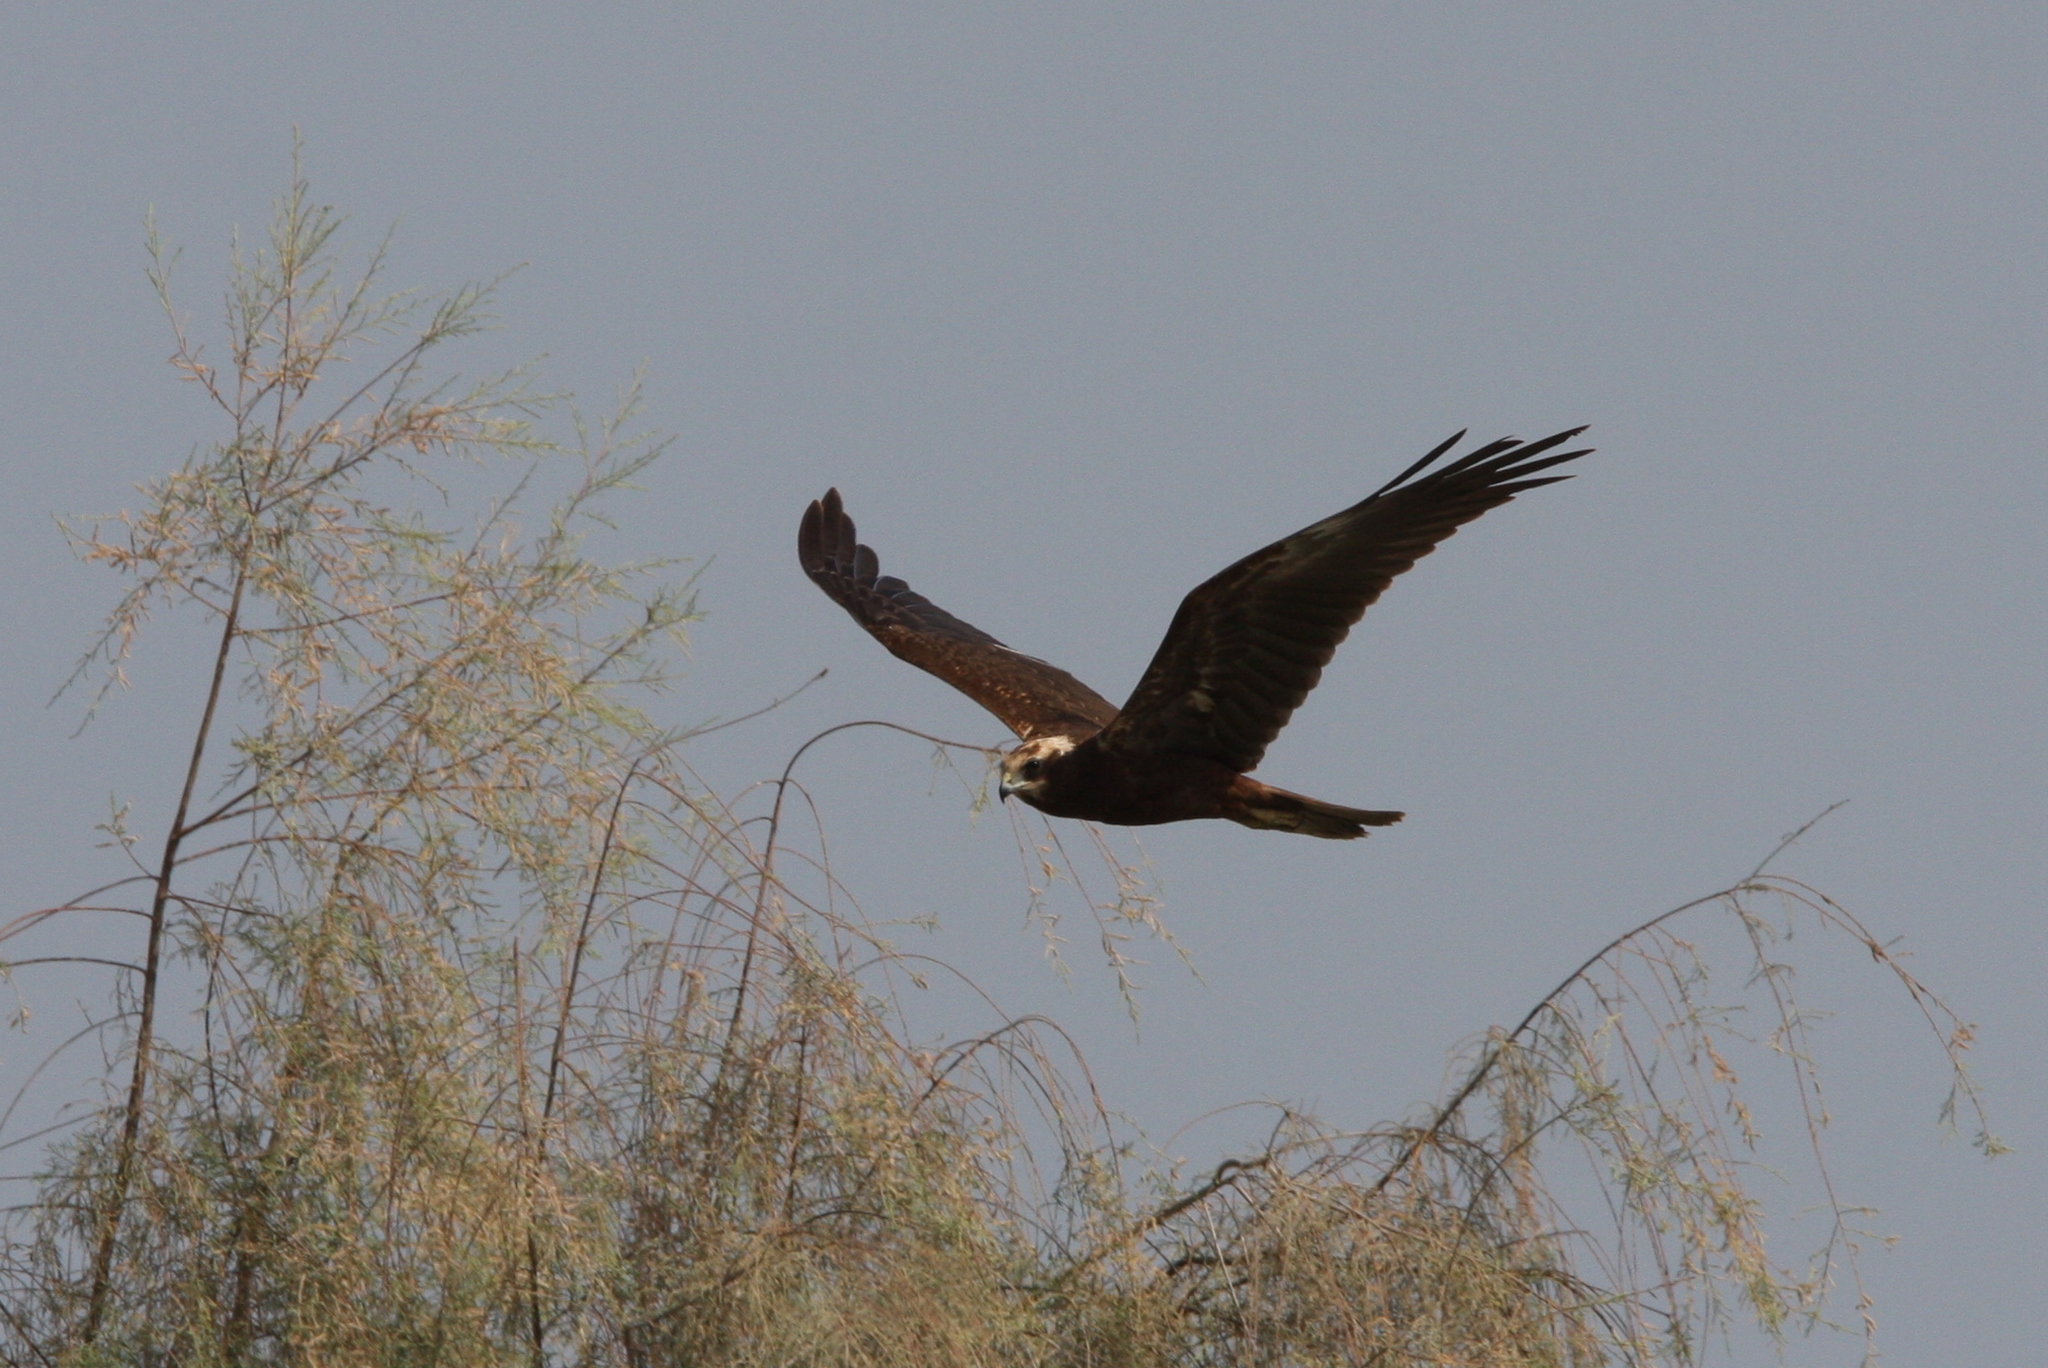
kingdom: Animalia
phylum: Chordata
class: Aves
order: Accipitriformes
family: Accipitridae
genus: Circus
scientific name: Circus aeruginosus
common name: Western marsh harrier
